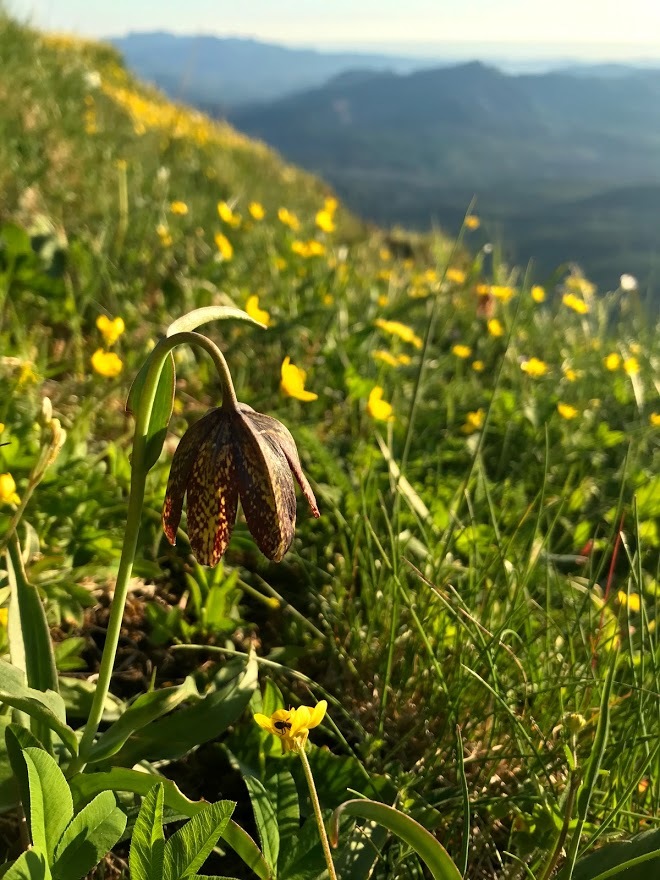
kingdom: Plantae
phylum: Tracheophyta
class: Liliopsida
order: Liliales
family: Liliaceae
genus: Fritillaria
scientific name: Fritillaria affinis
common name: Ojai fritillary
